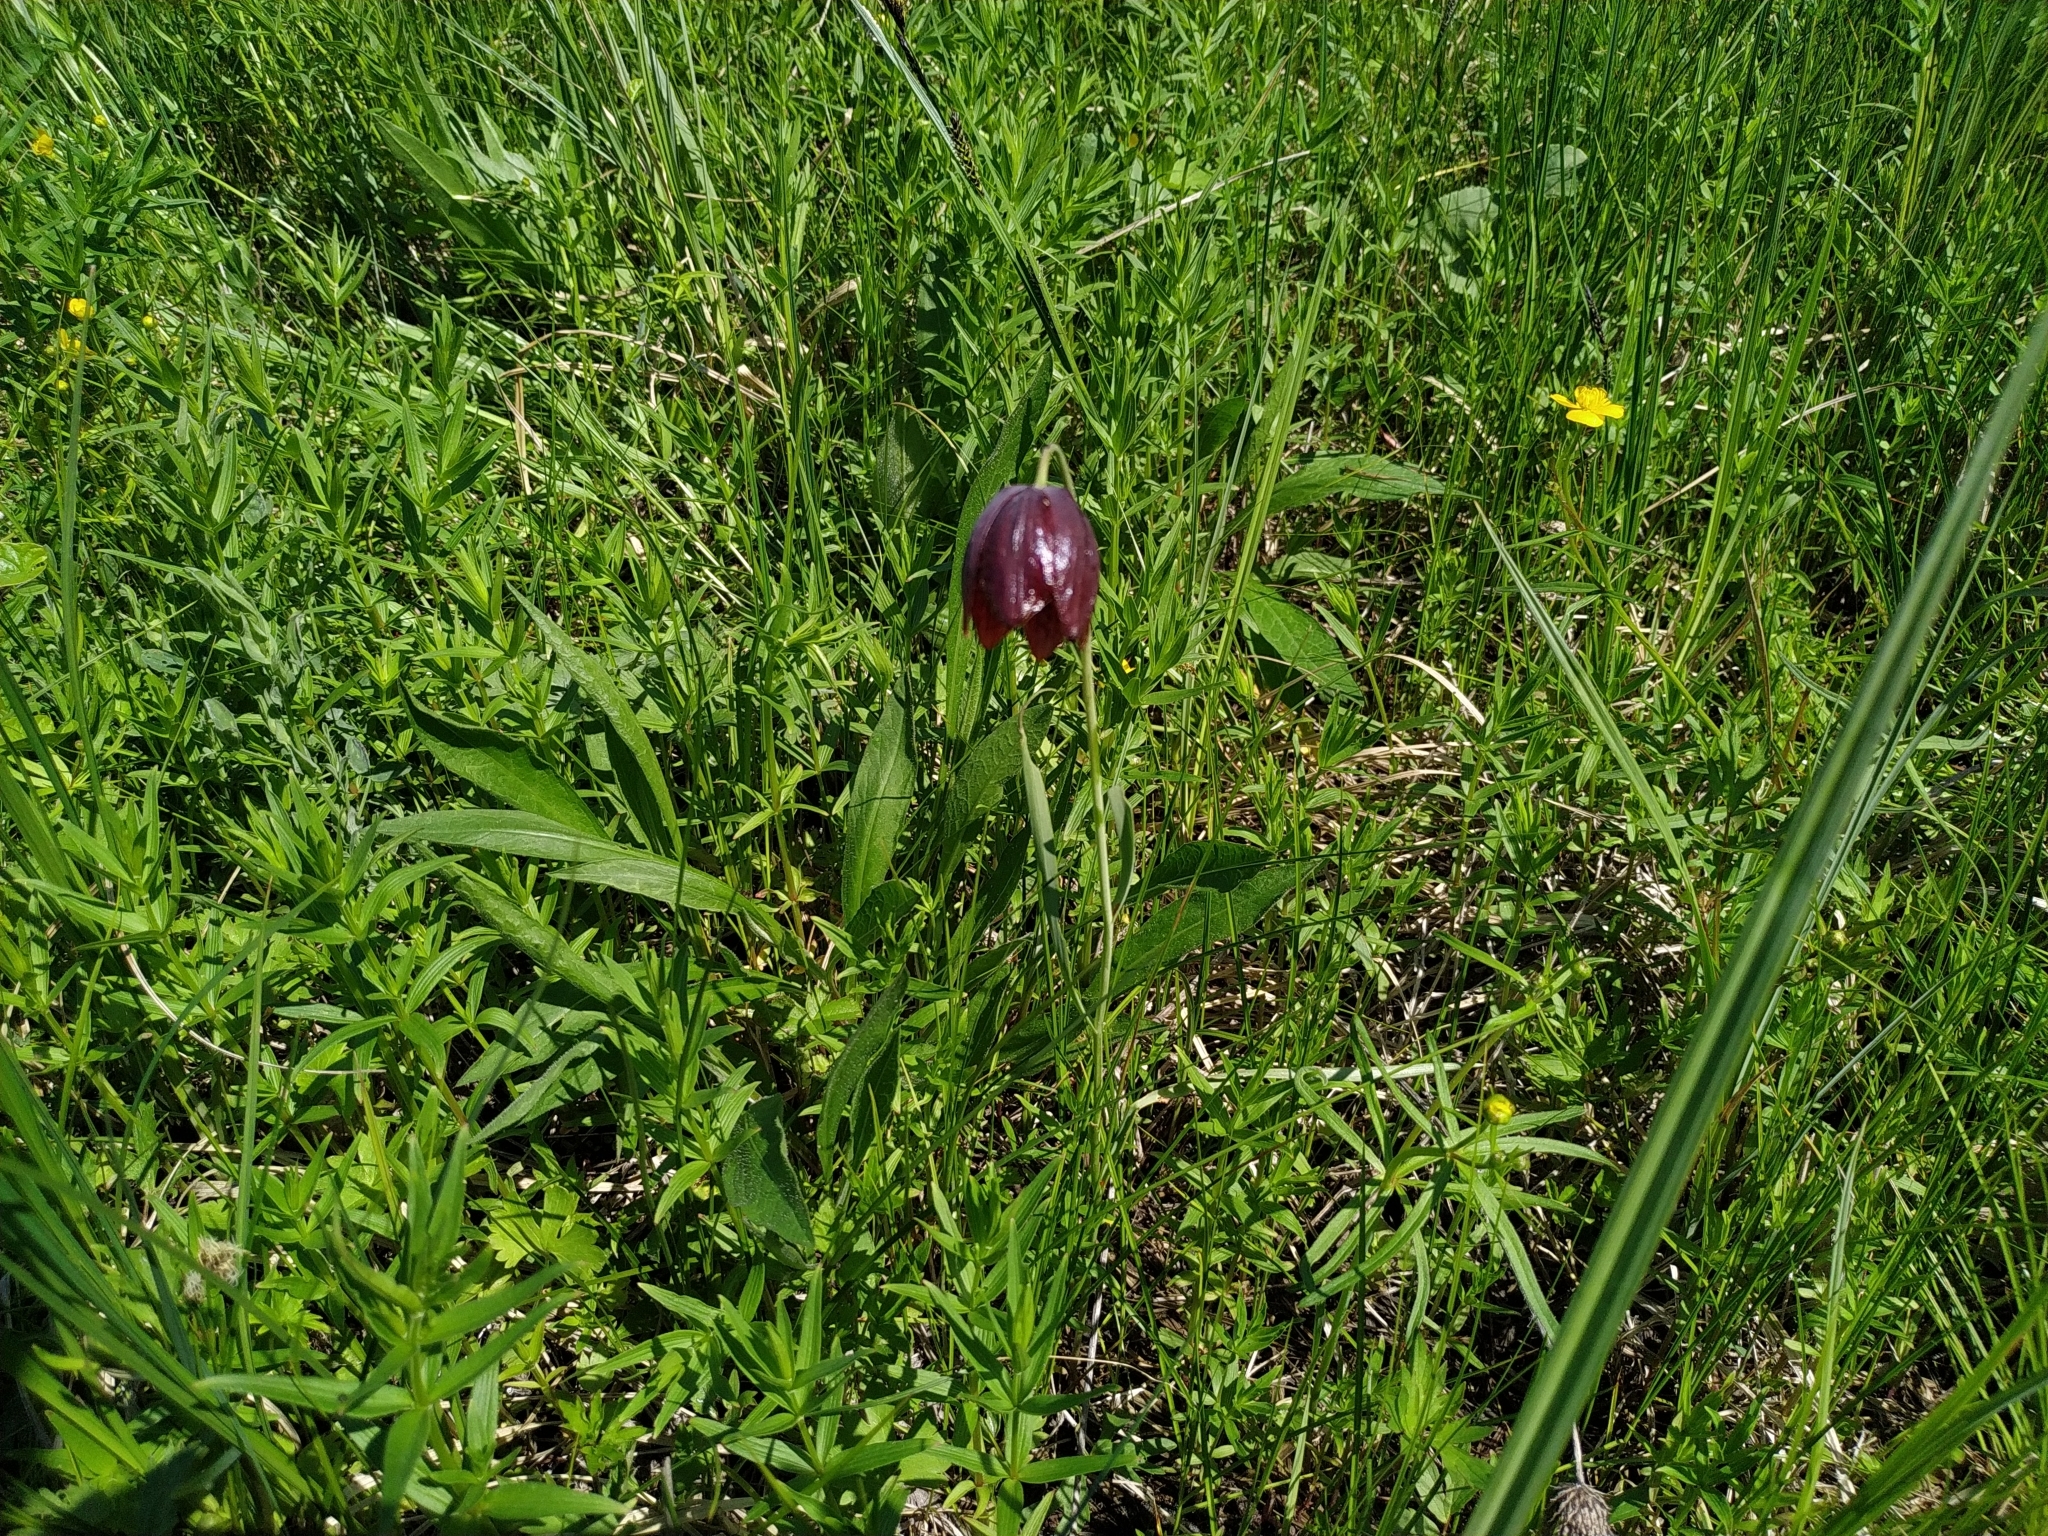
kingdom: Plantae
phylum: Tracheophyta
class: Liliopsida
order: Liliales
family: Liliaceae
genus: Fritillaria
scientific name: Fritillaria meleagroides
